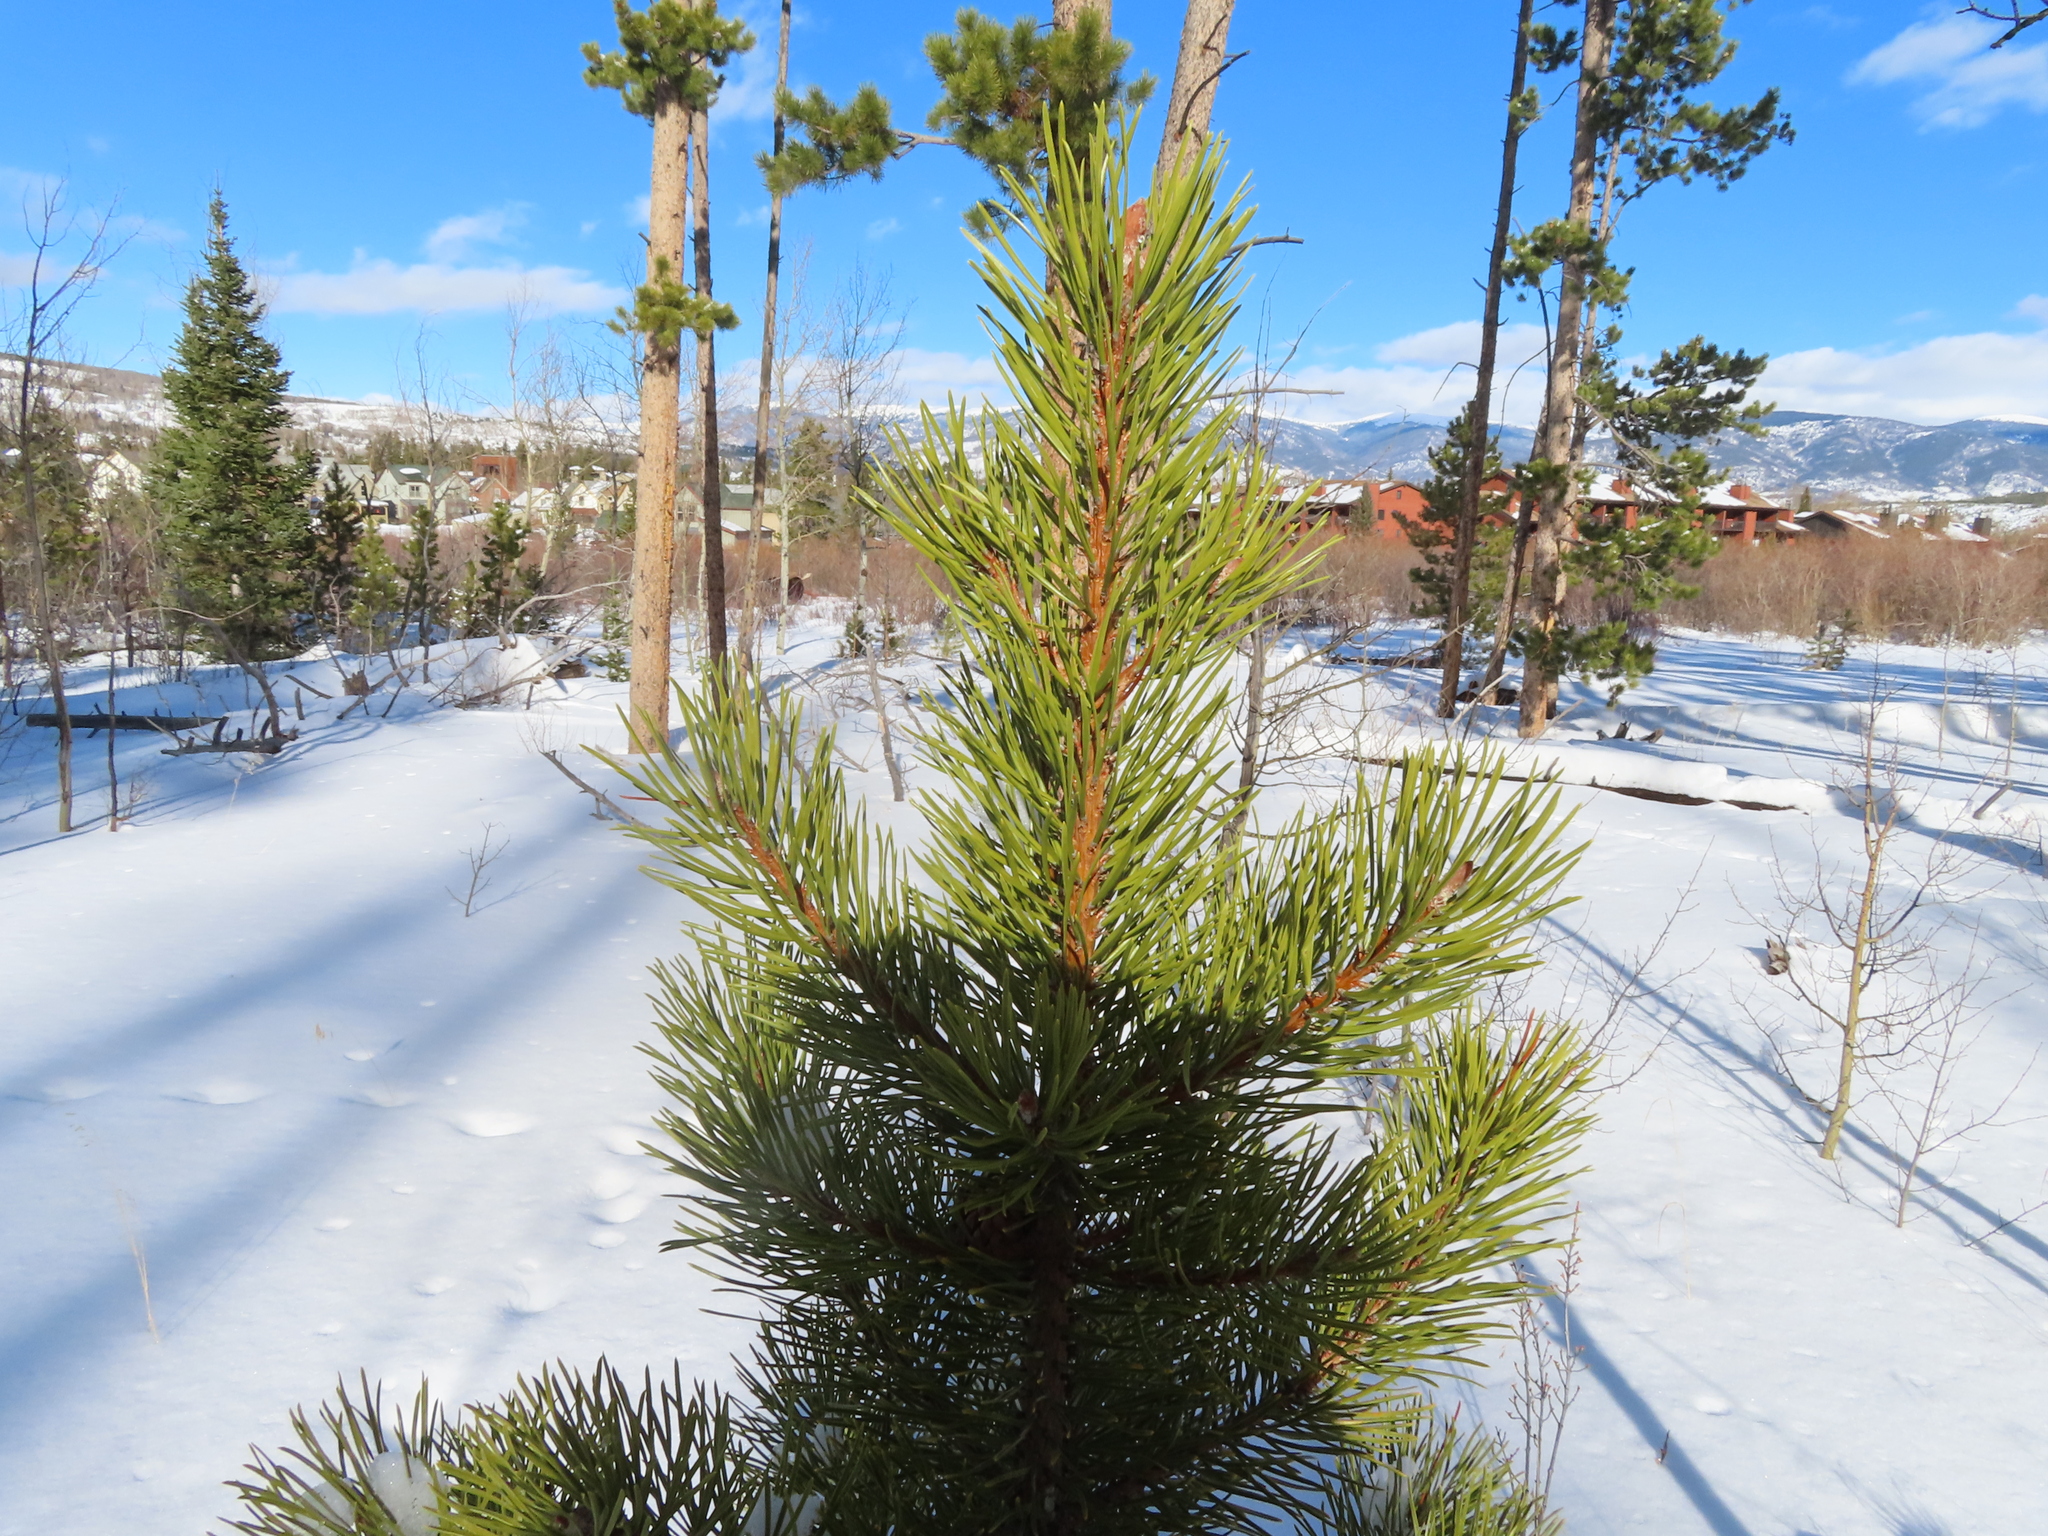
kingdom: Plantae
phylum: Tracheophyta
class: Pinopsida
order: Pinales
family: Pinaceae
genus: Pinus
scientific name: Pinus contorta
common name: Lodgepole pine
